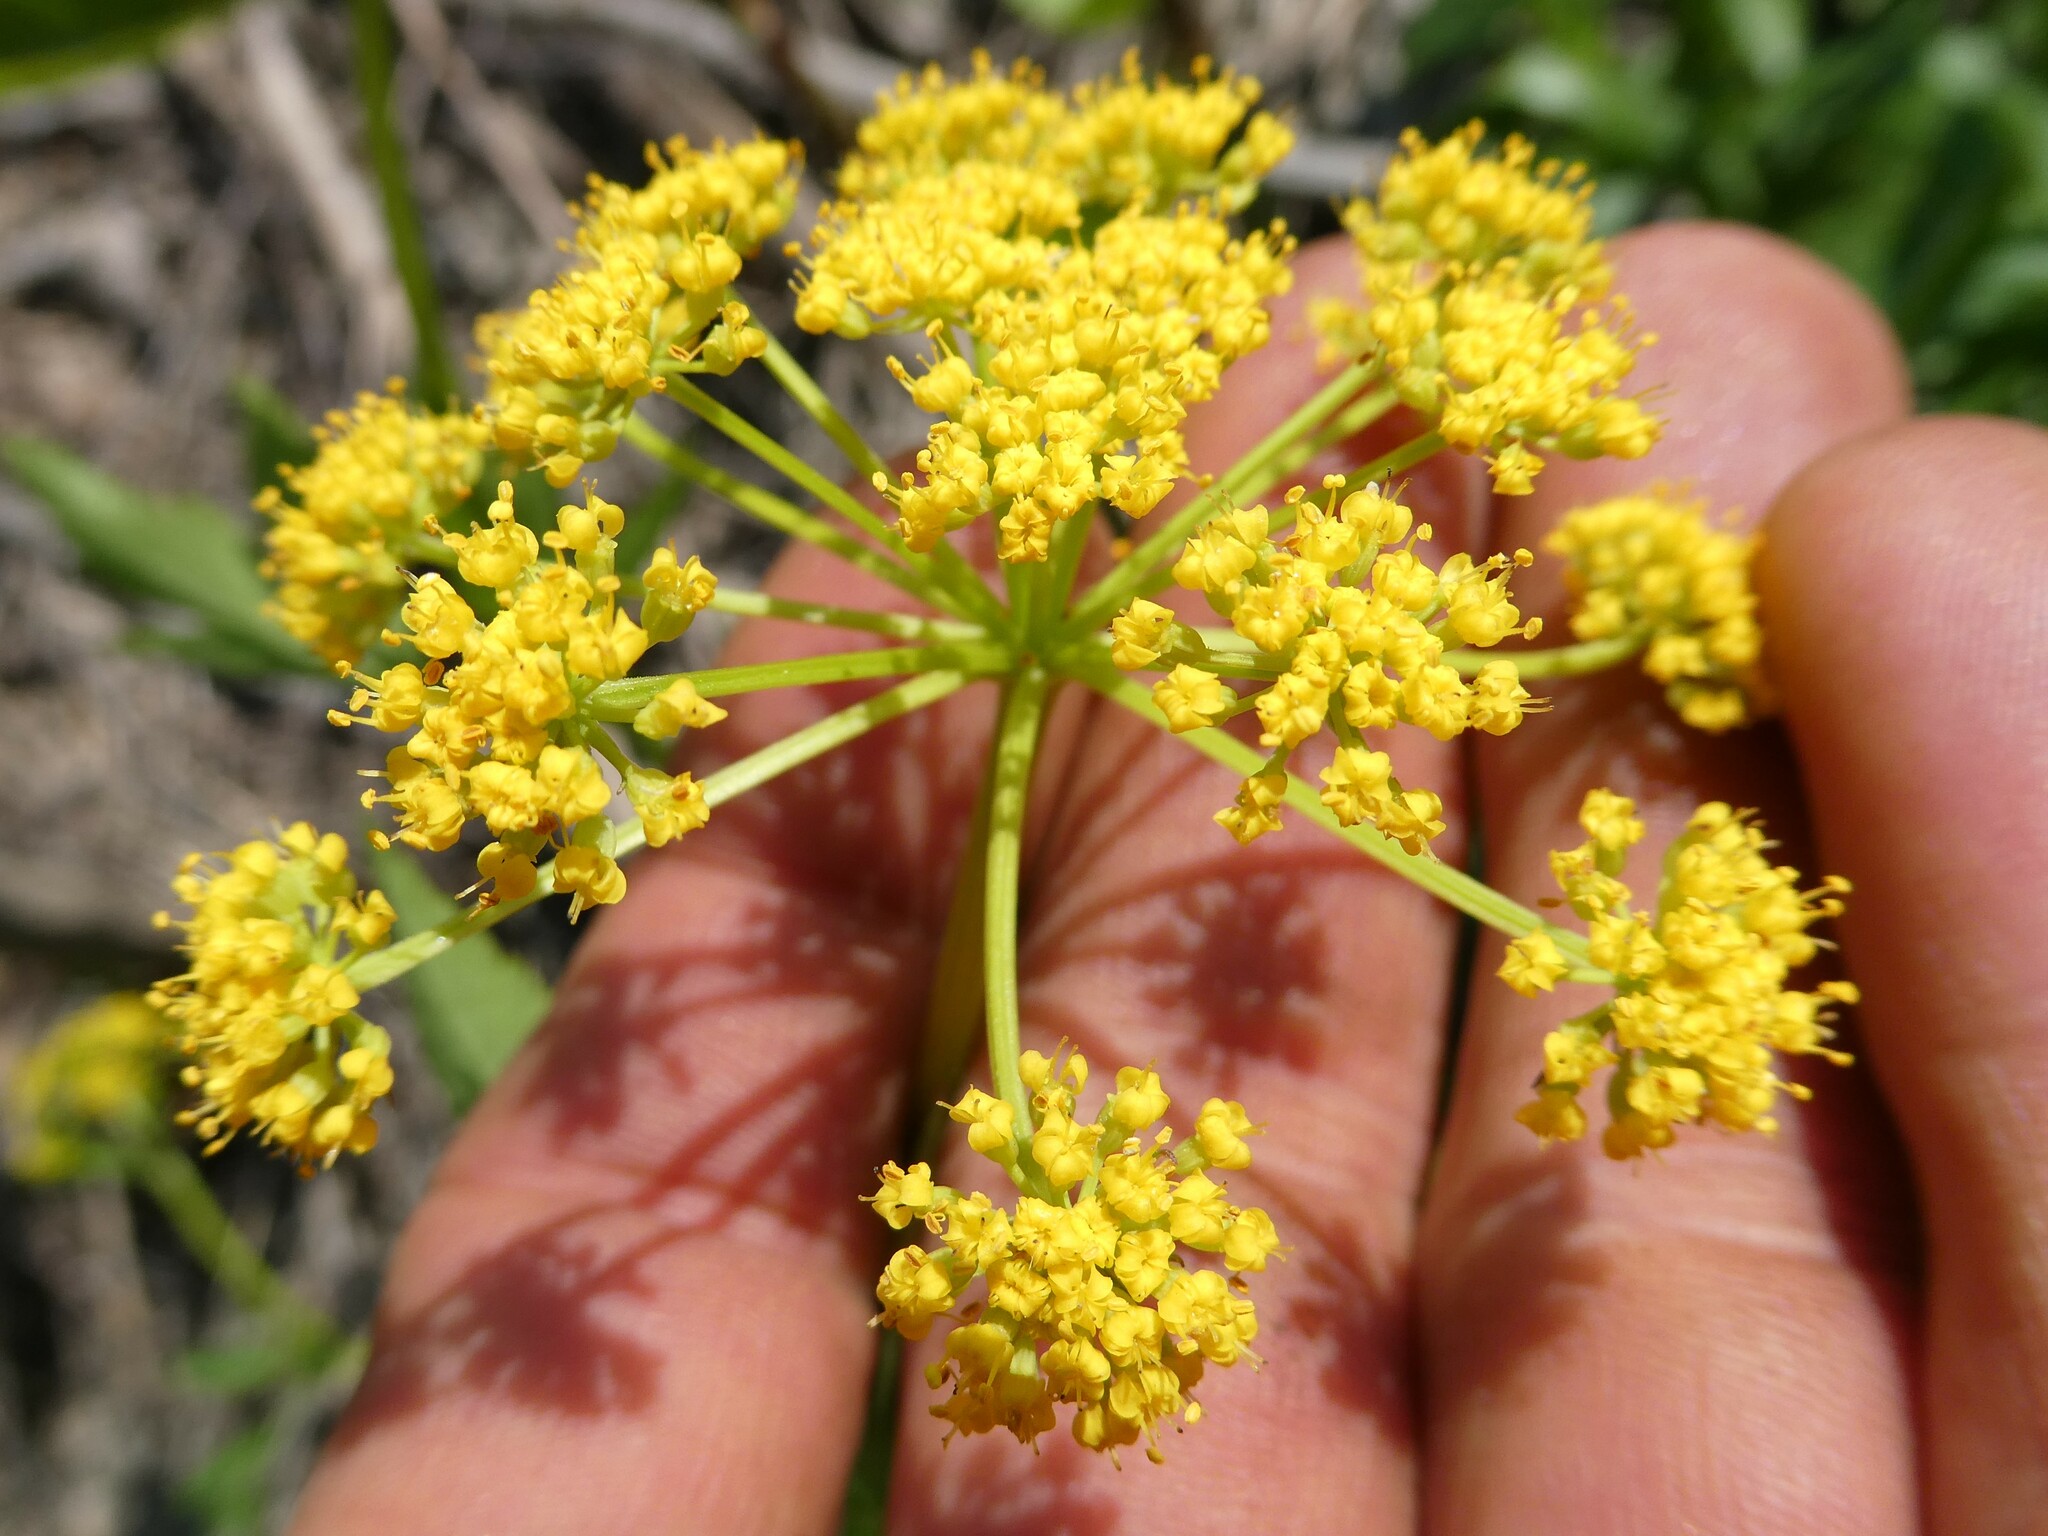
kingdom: Plantae
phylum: Tracheophyta
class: Magnoliopsida
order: Apiales
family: Apiaceae
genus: Zizia
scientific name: Zizia aurea
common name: Golden alexanders
